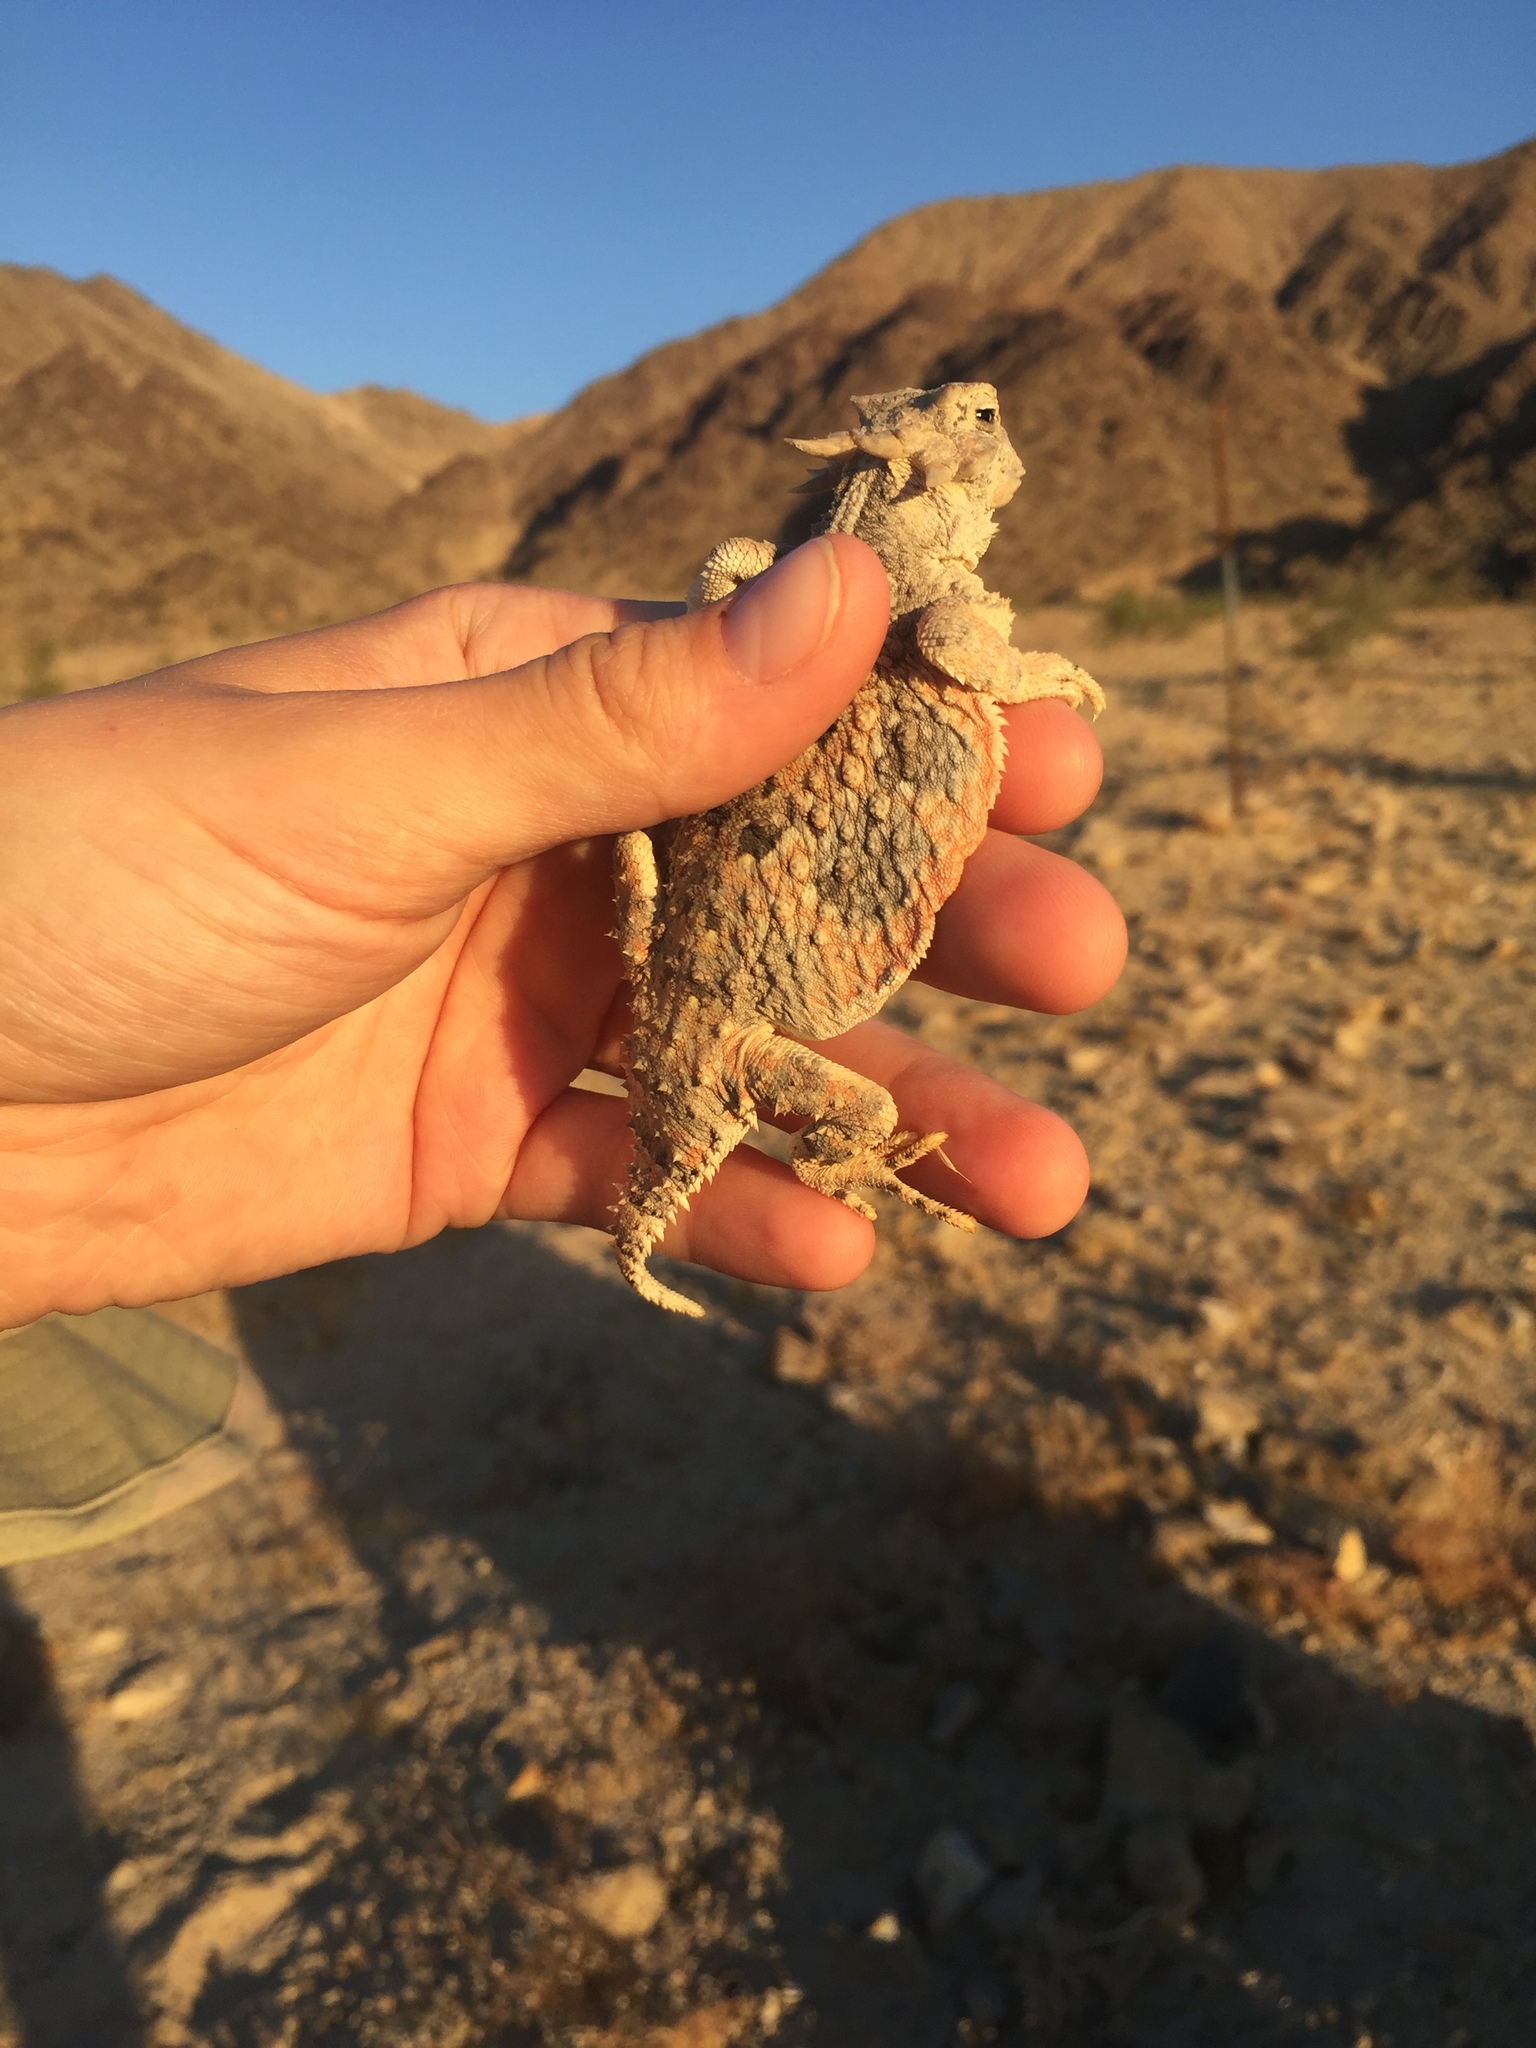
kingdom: Animalia
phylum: Chordata
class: Squamata
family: Phrynosomatidae
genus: Phrynosoma
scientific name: Phrynosoma platyrhinos
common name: Desert horned lizard
